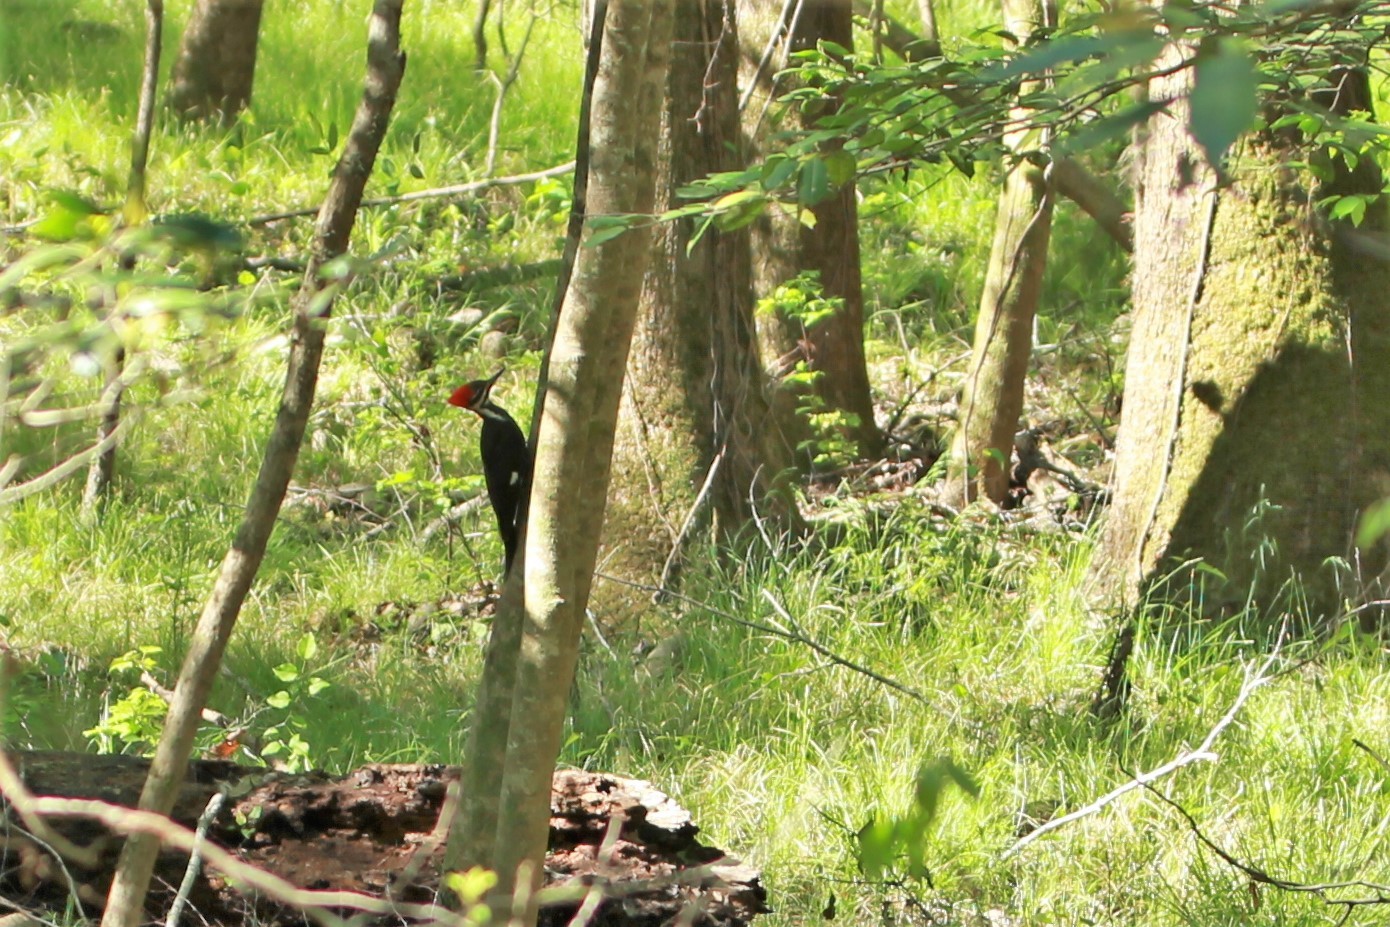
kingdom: Animalia
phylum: Chordata
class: Aves
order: Piciformes
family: Picidae
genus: Dryocopus
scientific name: Dryocopus pileatus
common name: Pileated woodpecker
